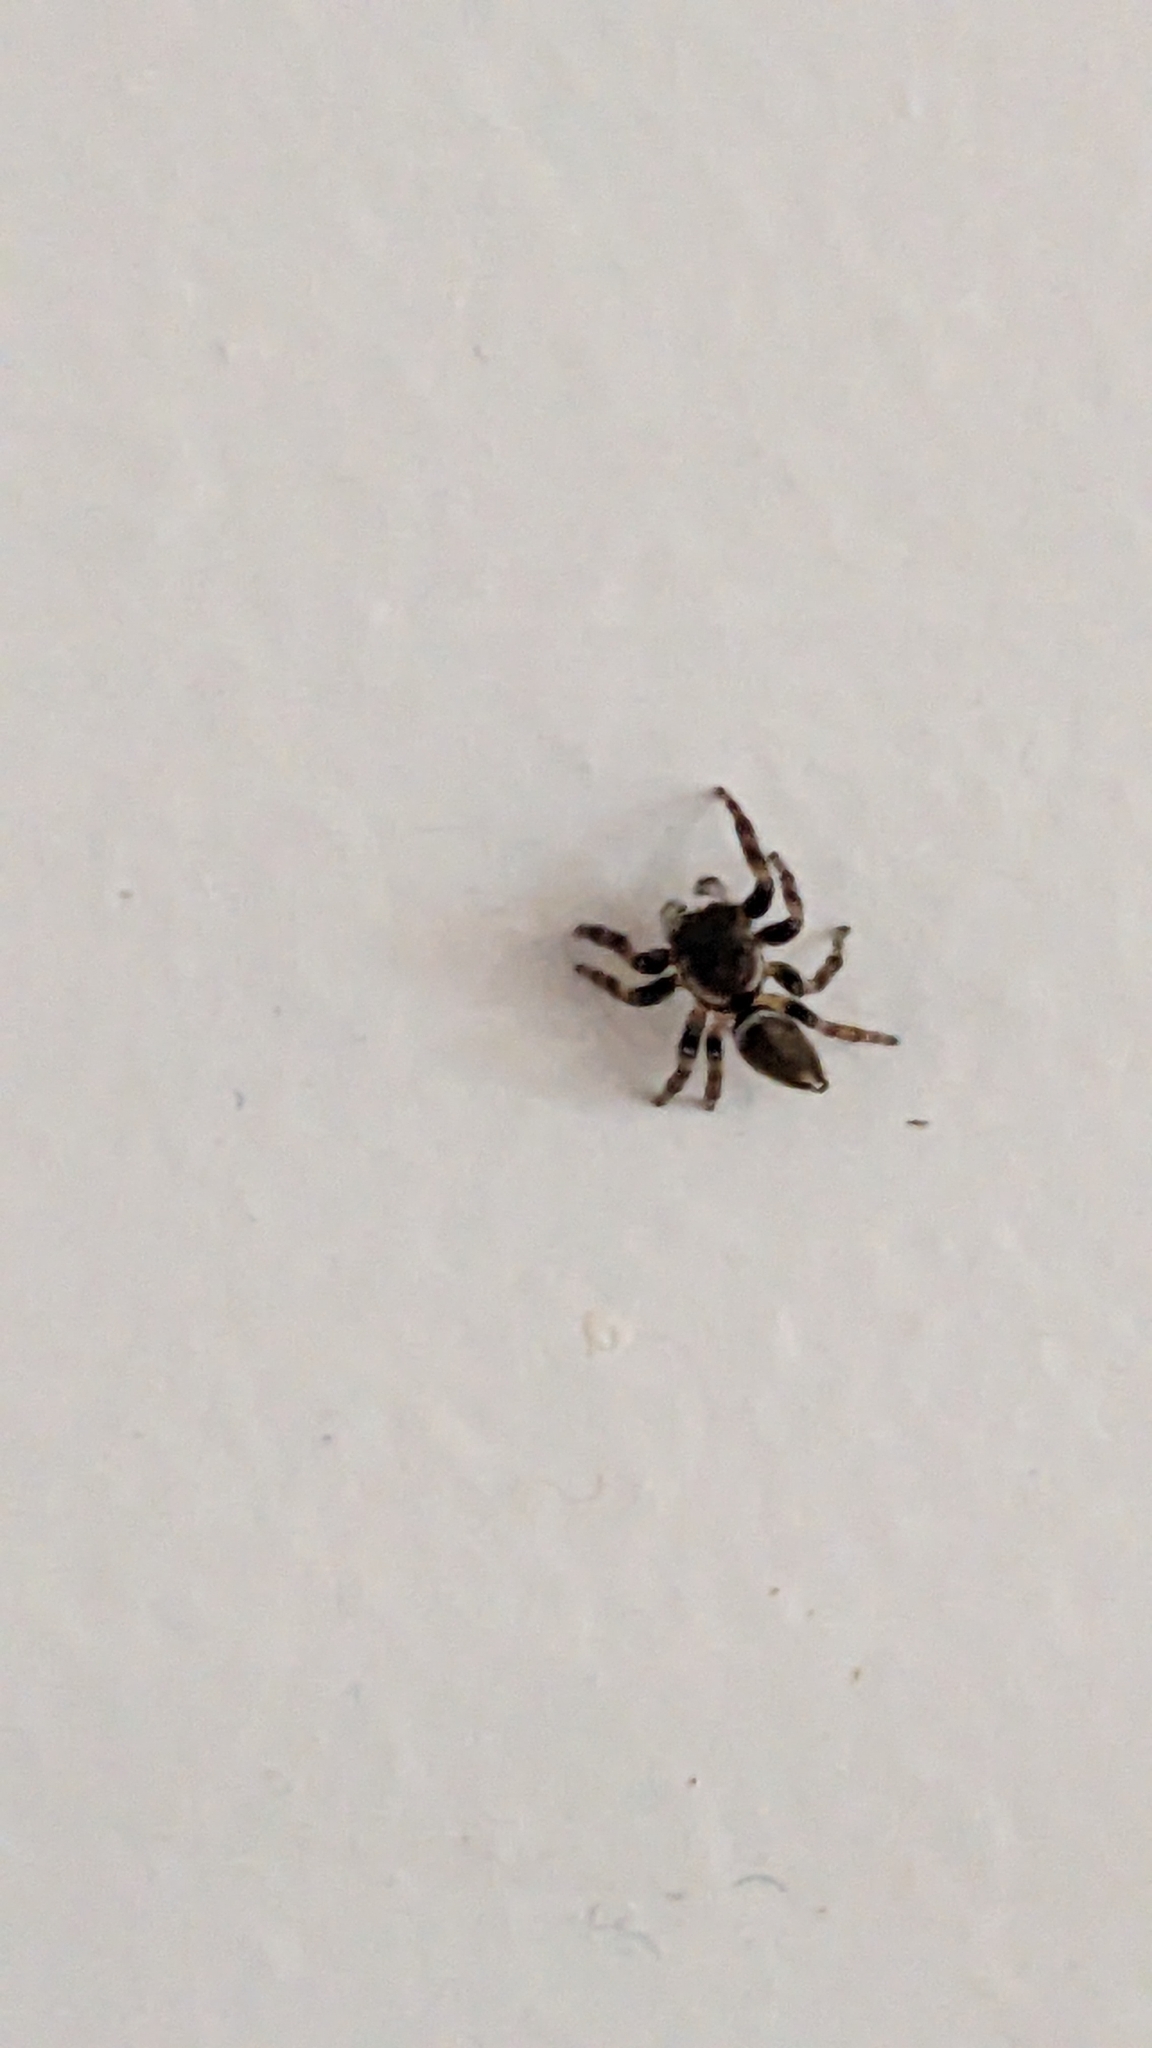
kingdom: Animalia
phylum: Arthropoda
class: Arachnida
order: Araneae
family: Salticidae
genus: Maratus
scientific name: Maratus scutulatus
